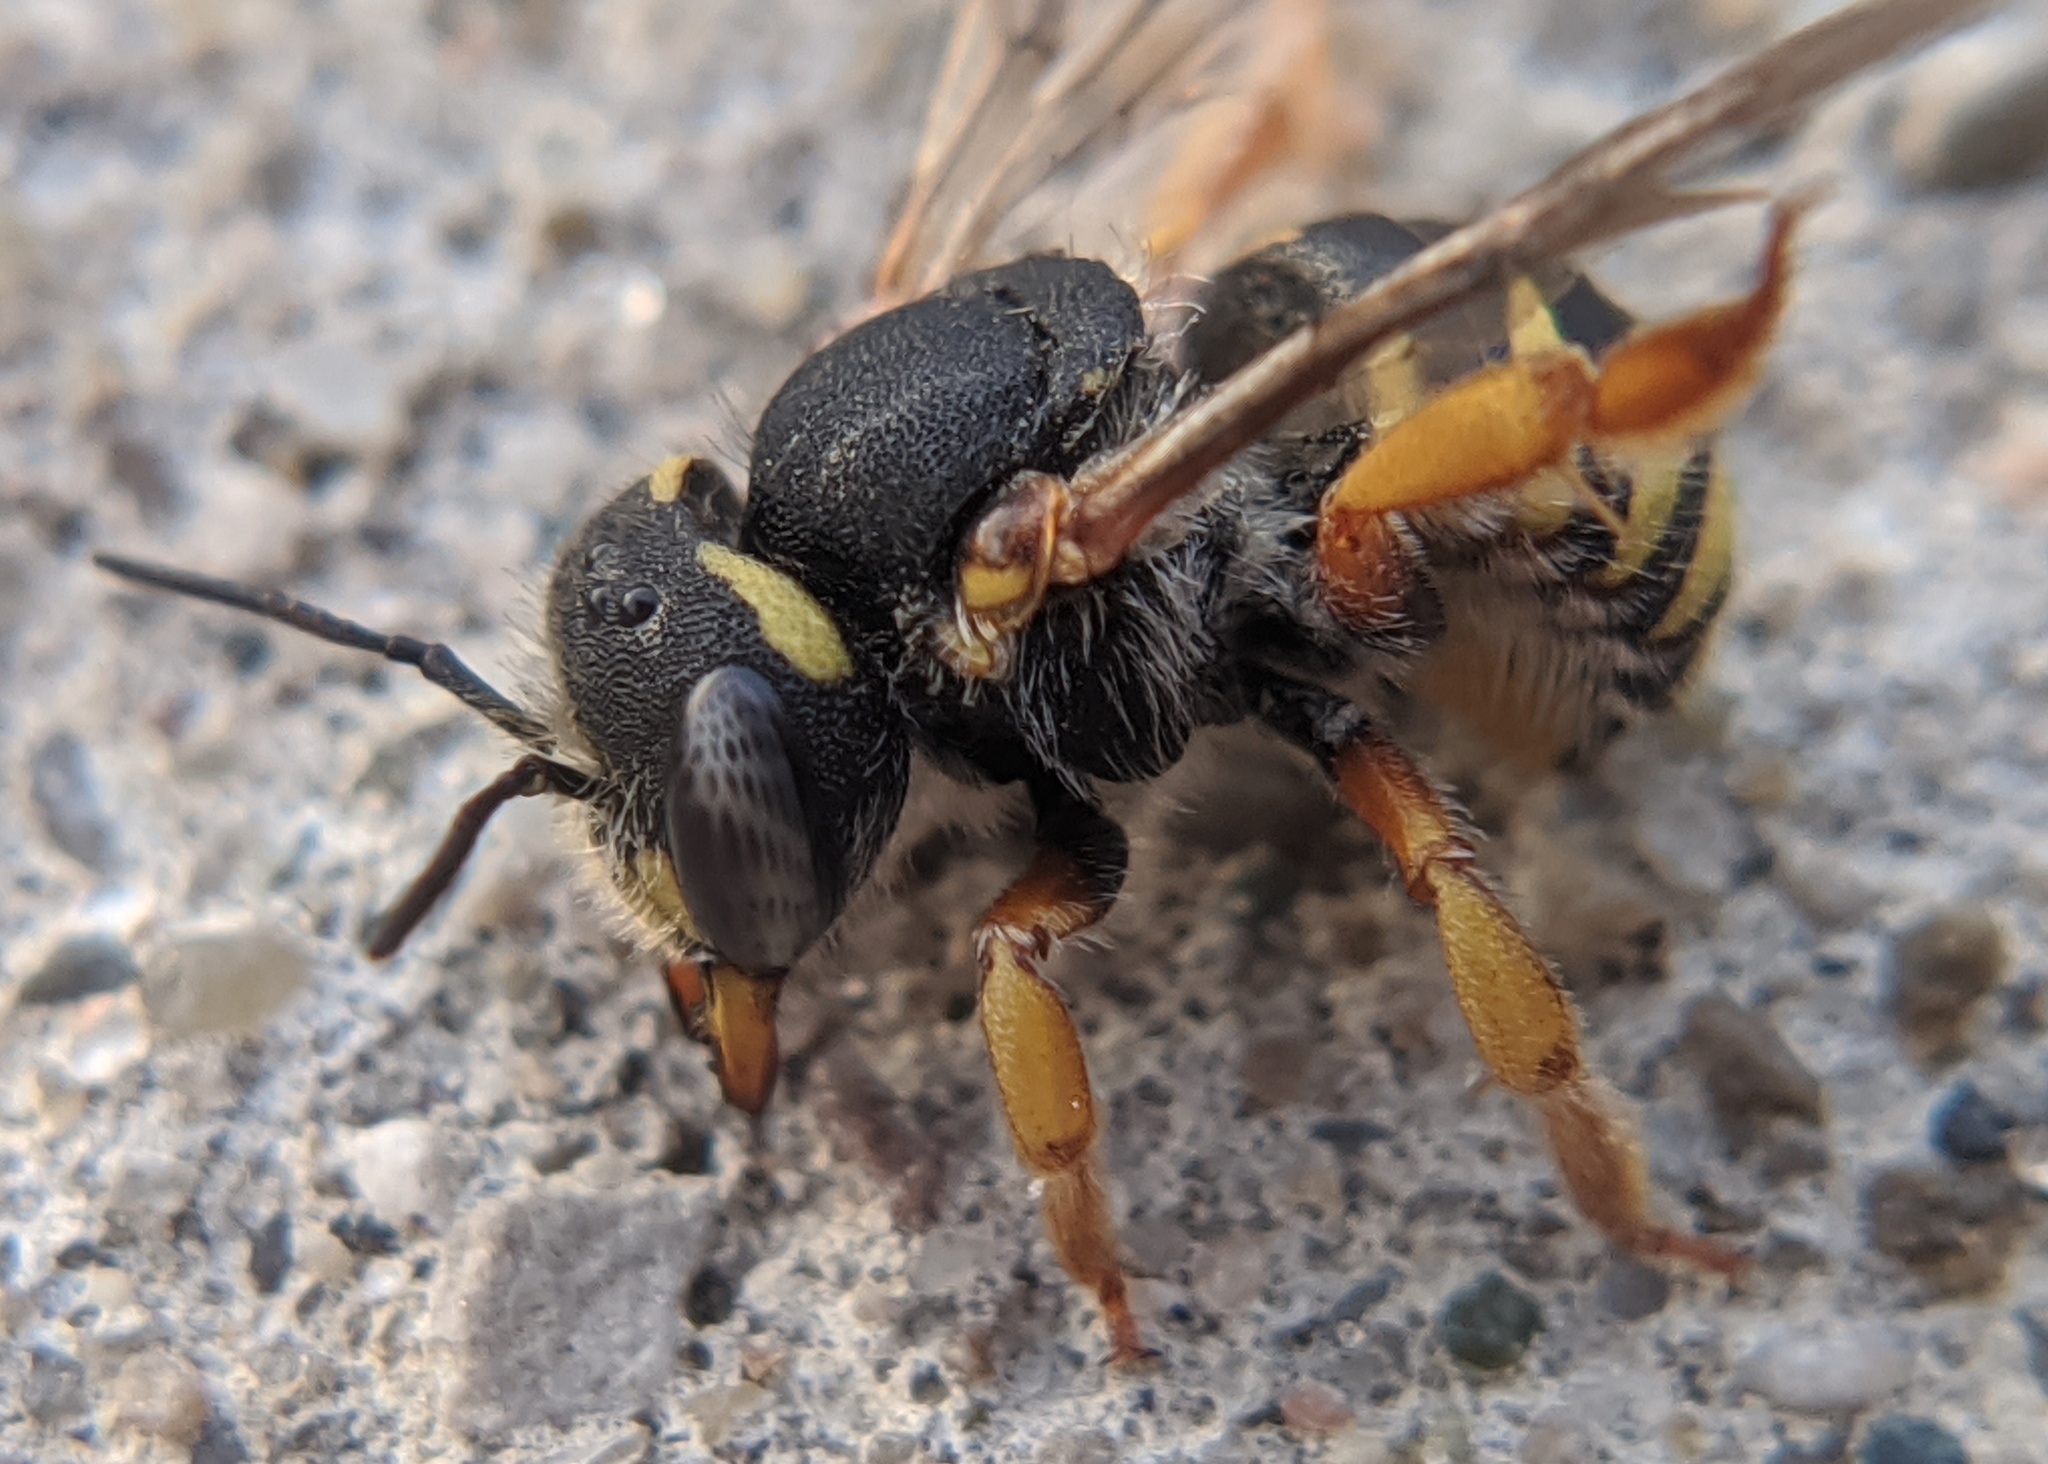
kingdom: Animalia
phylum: Arthropoda
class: Insecta
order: Hymenoptera
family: Megachilidae
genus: Anthidium
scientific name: Anthidium oblongatum
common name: Oblong wool carder bee
